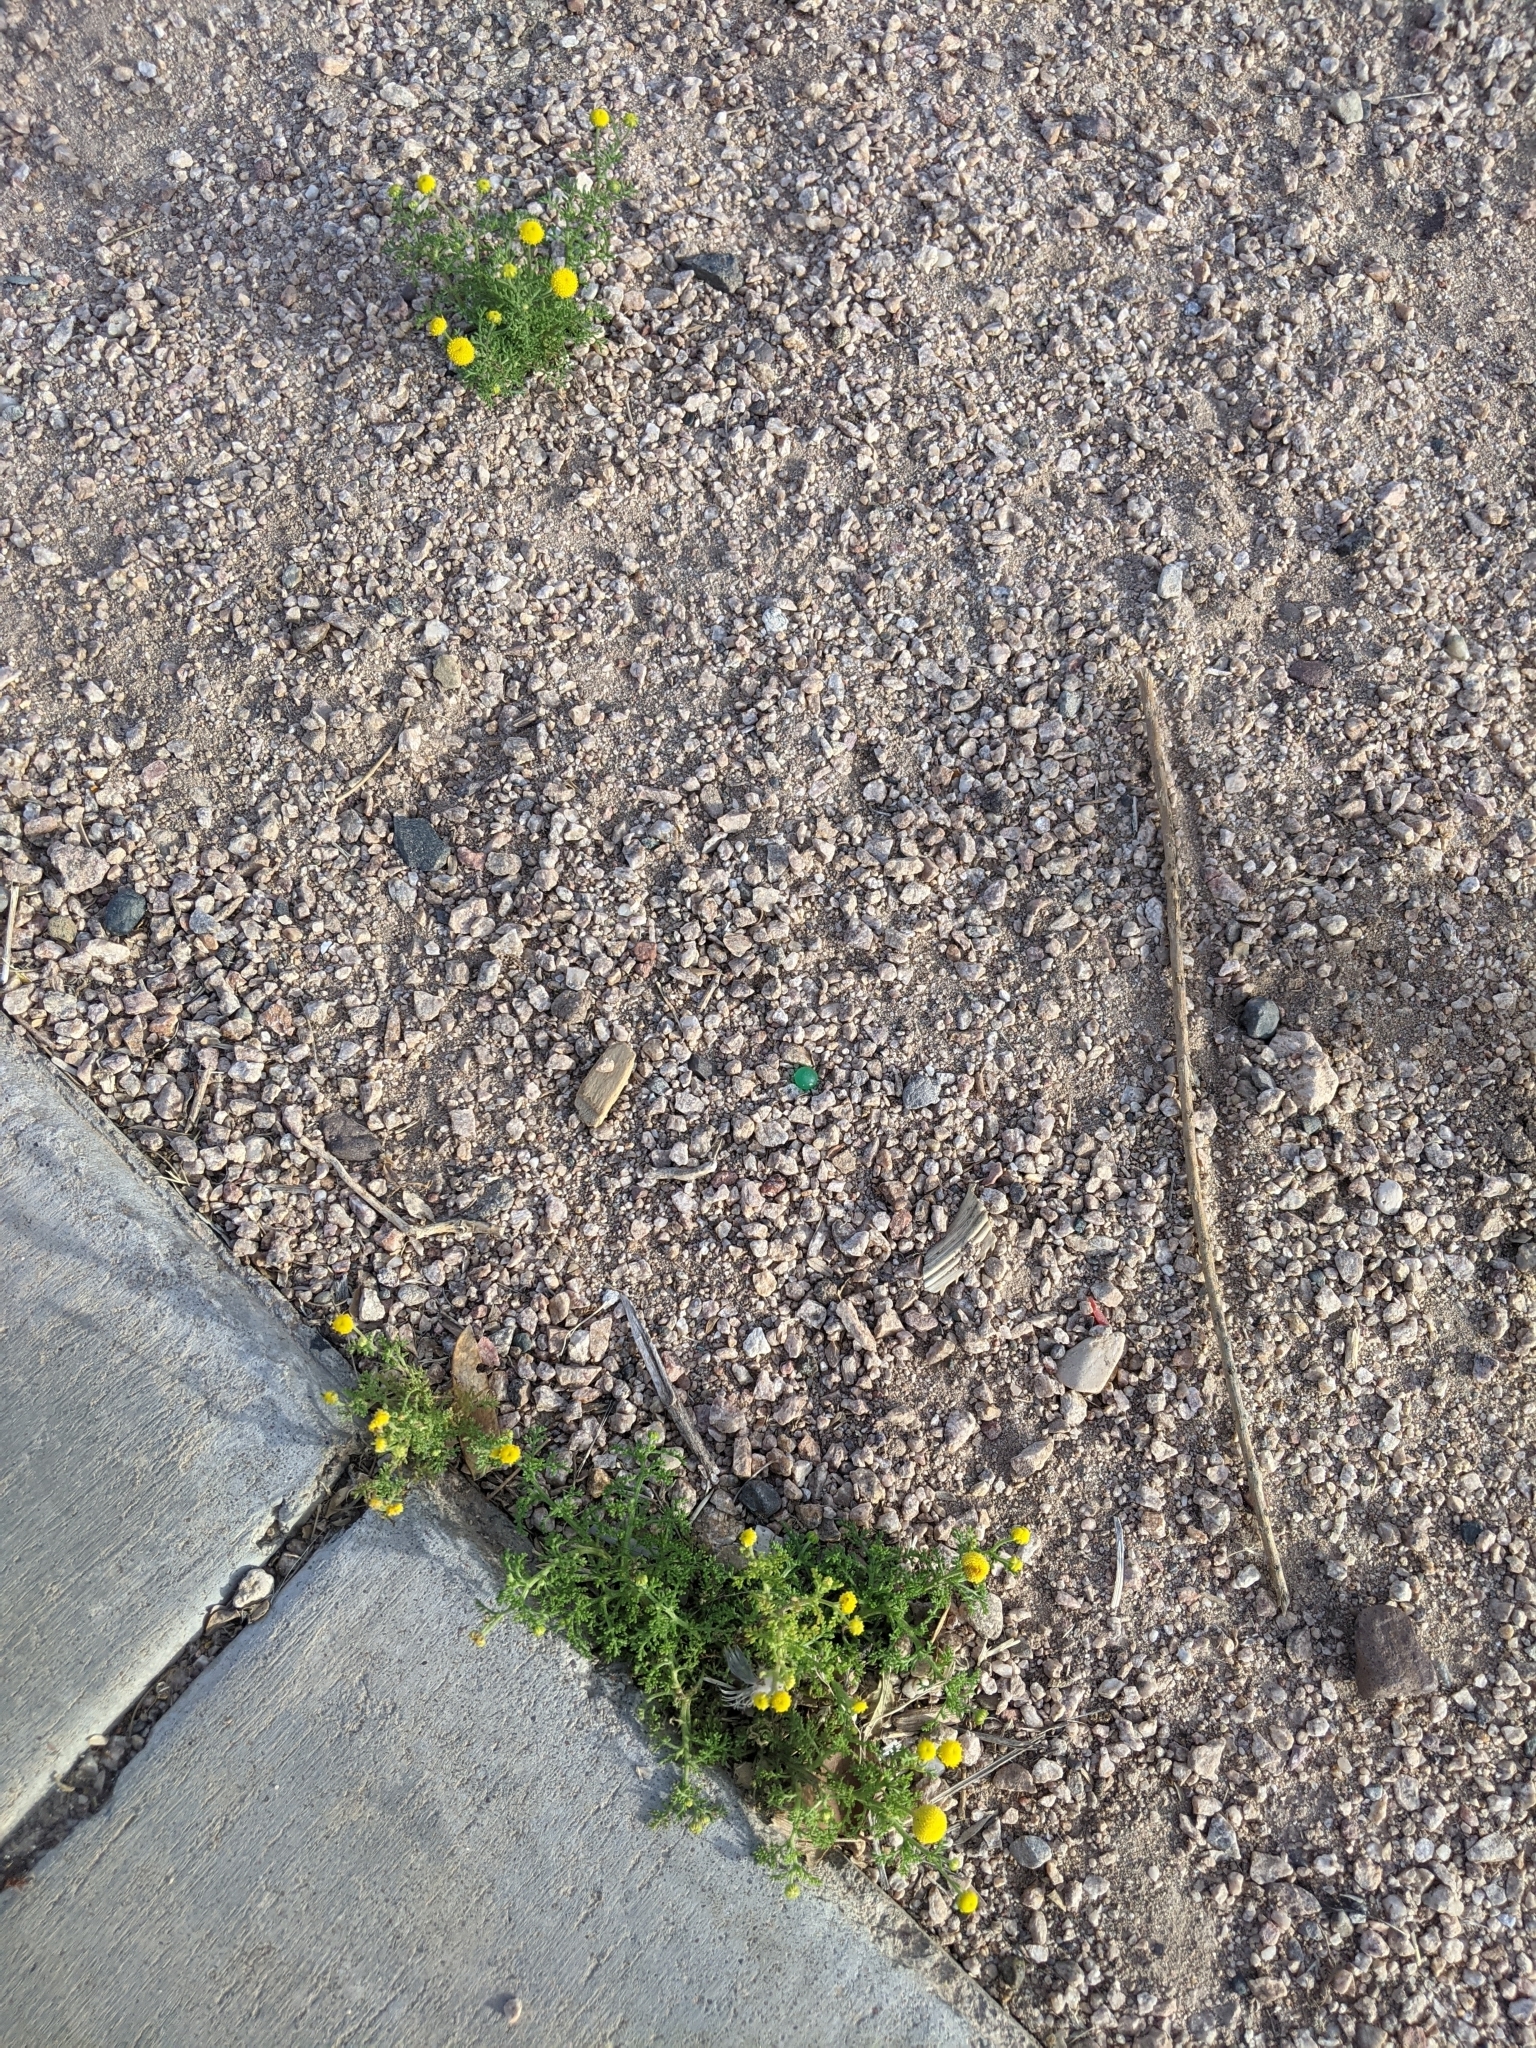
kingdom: Plantae
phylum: Tracheophyta
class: Magnoliopsida
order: Asterales
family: Asteraceae
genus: Oncosiphon
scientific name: Oncosiphon pilulifer
